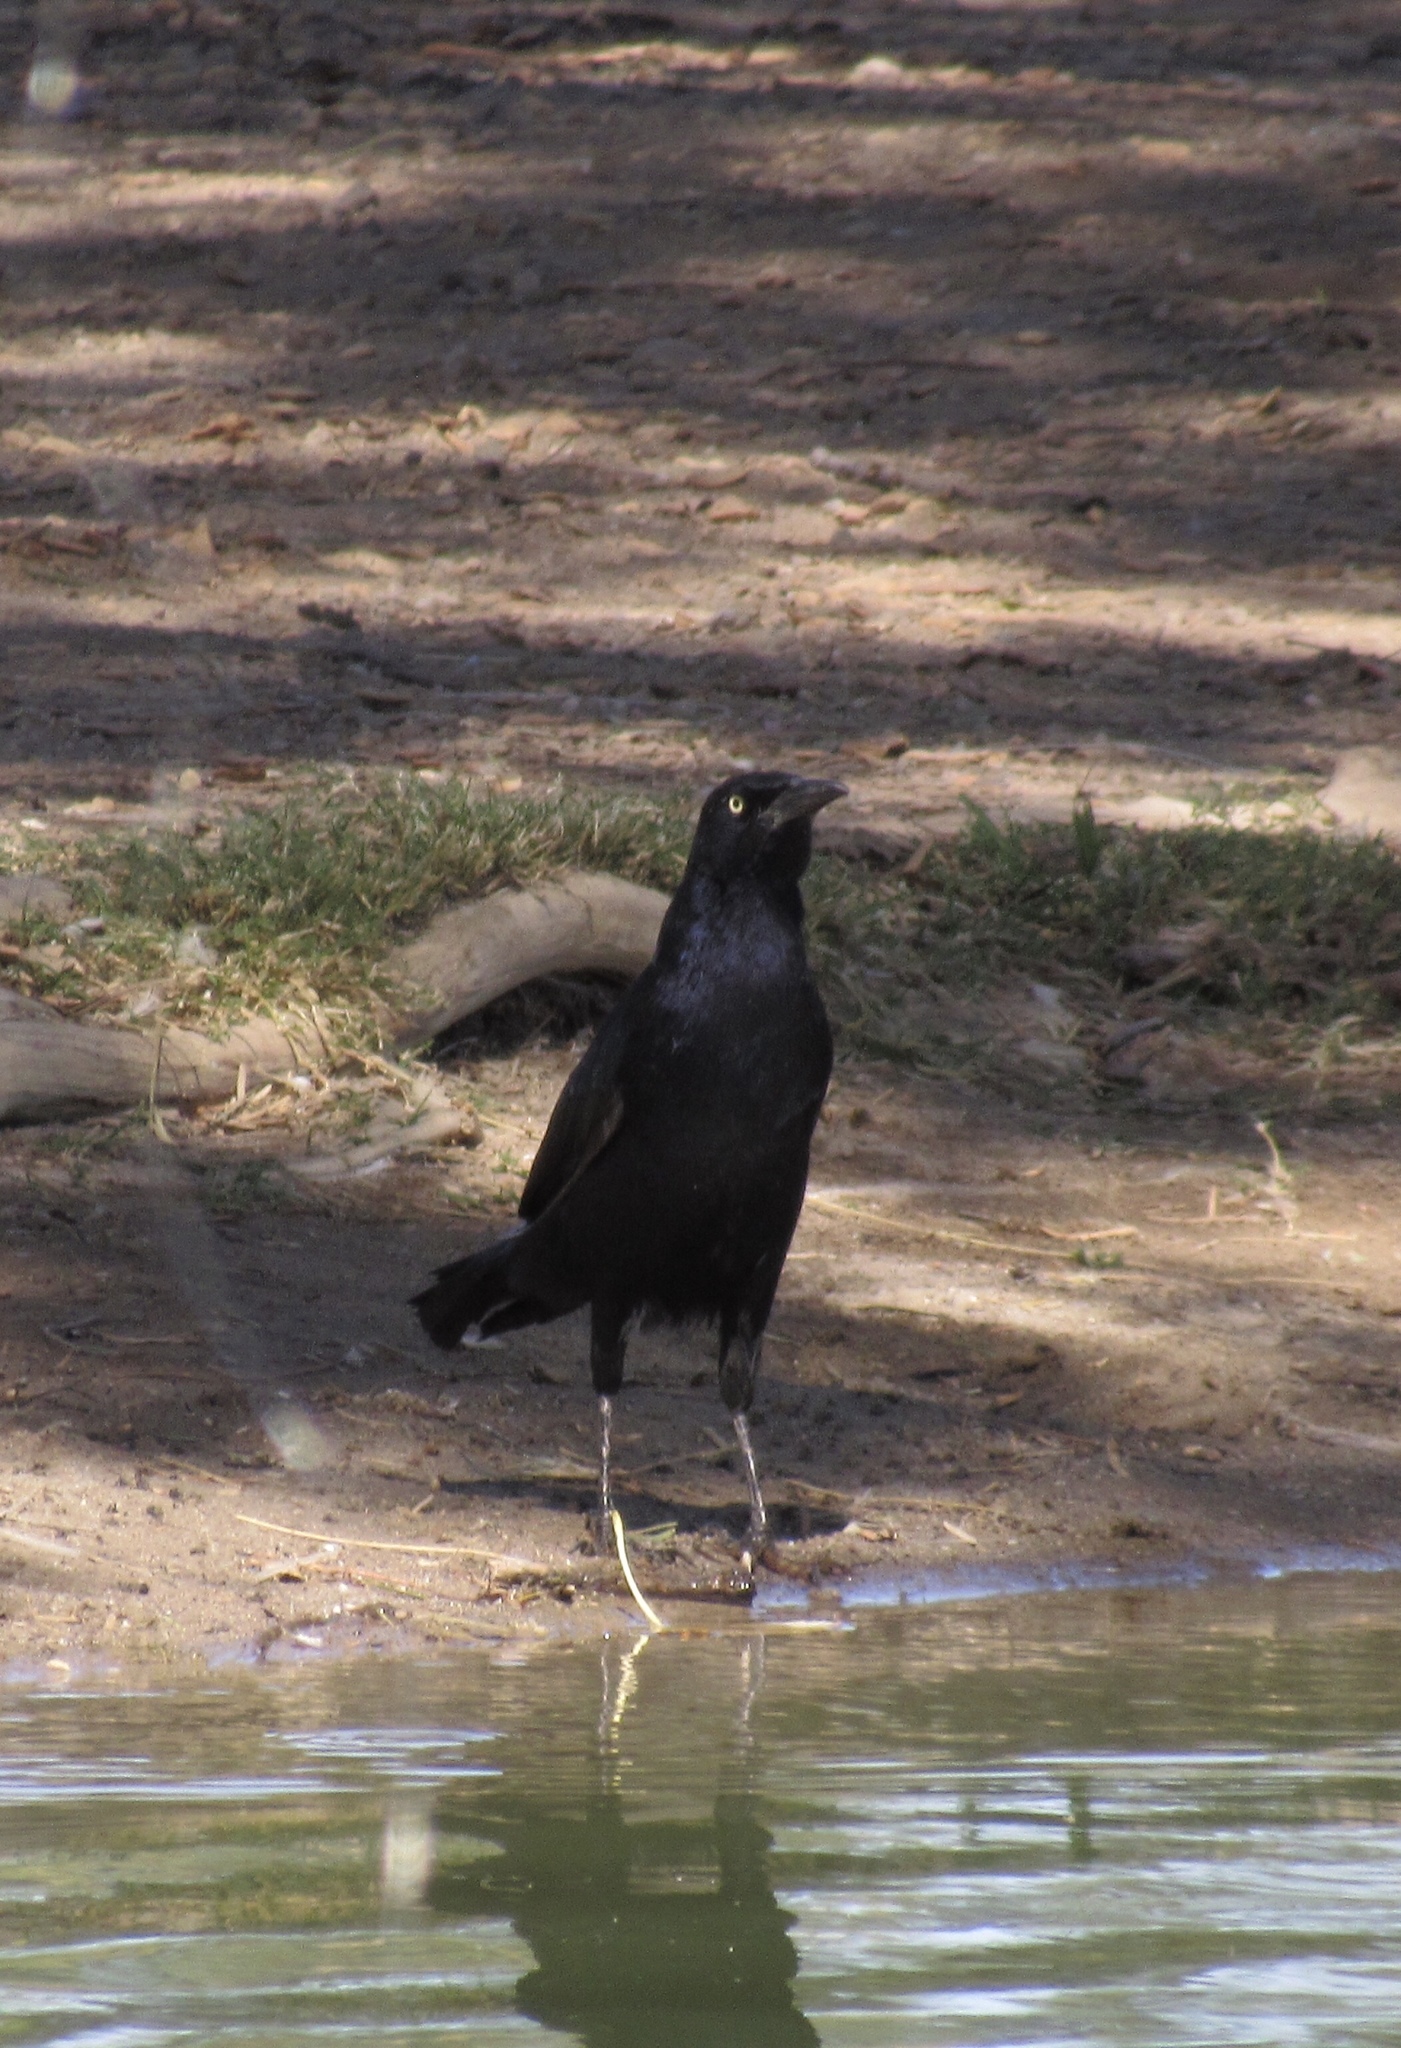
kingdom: Animalia
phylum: Chordata
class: Aves
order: Passeriformes
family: Icteridae
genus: Quiscalus
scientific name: Quiscalus mexicanus
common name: Great-tailed grackle
